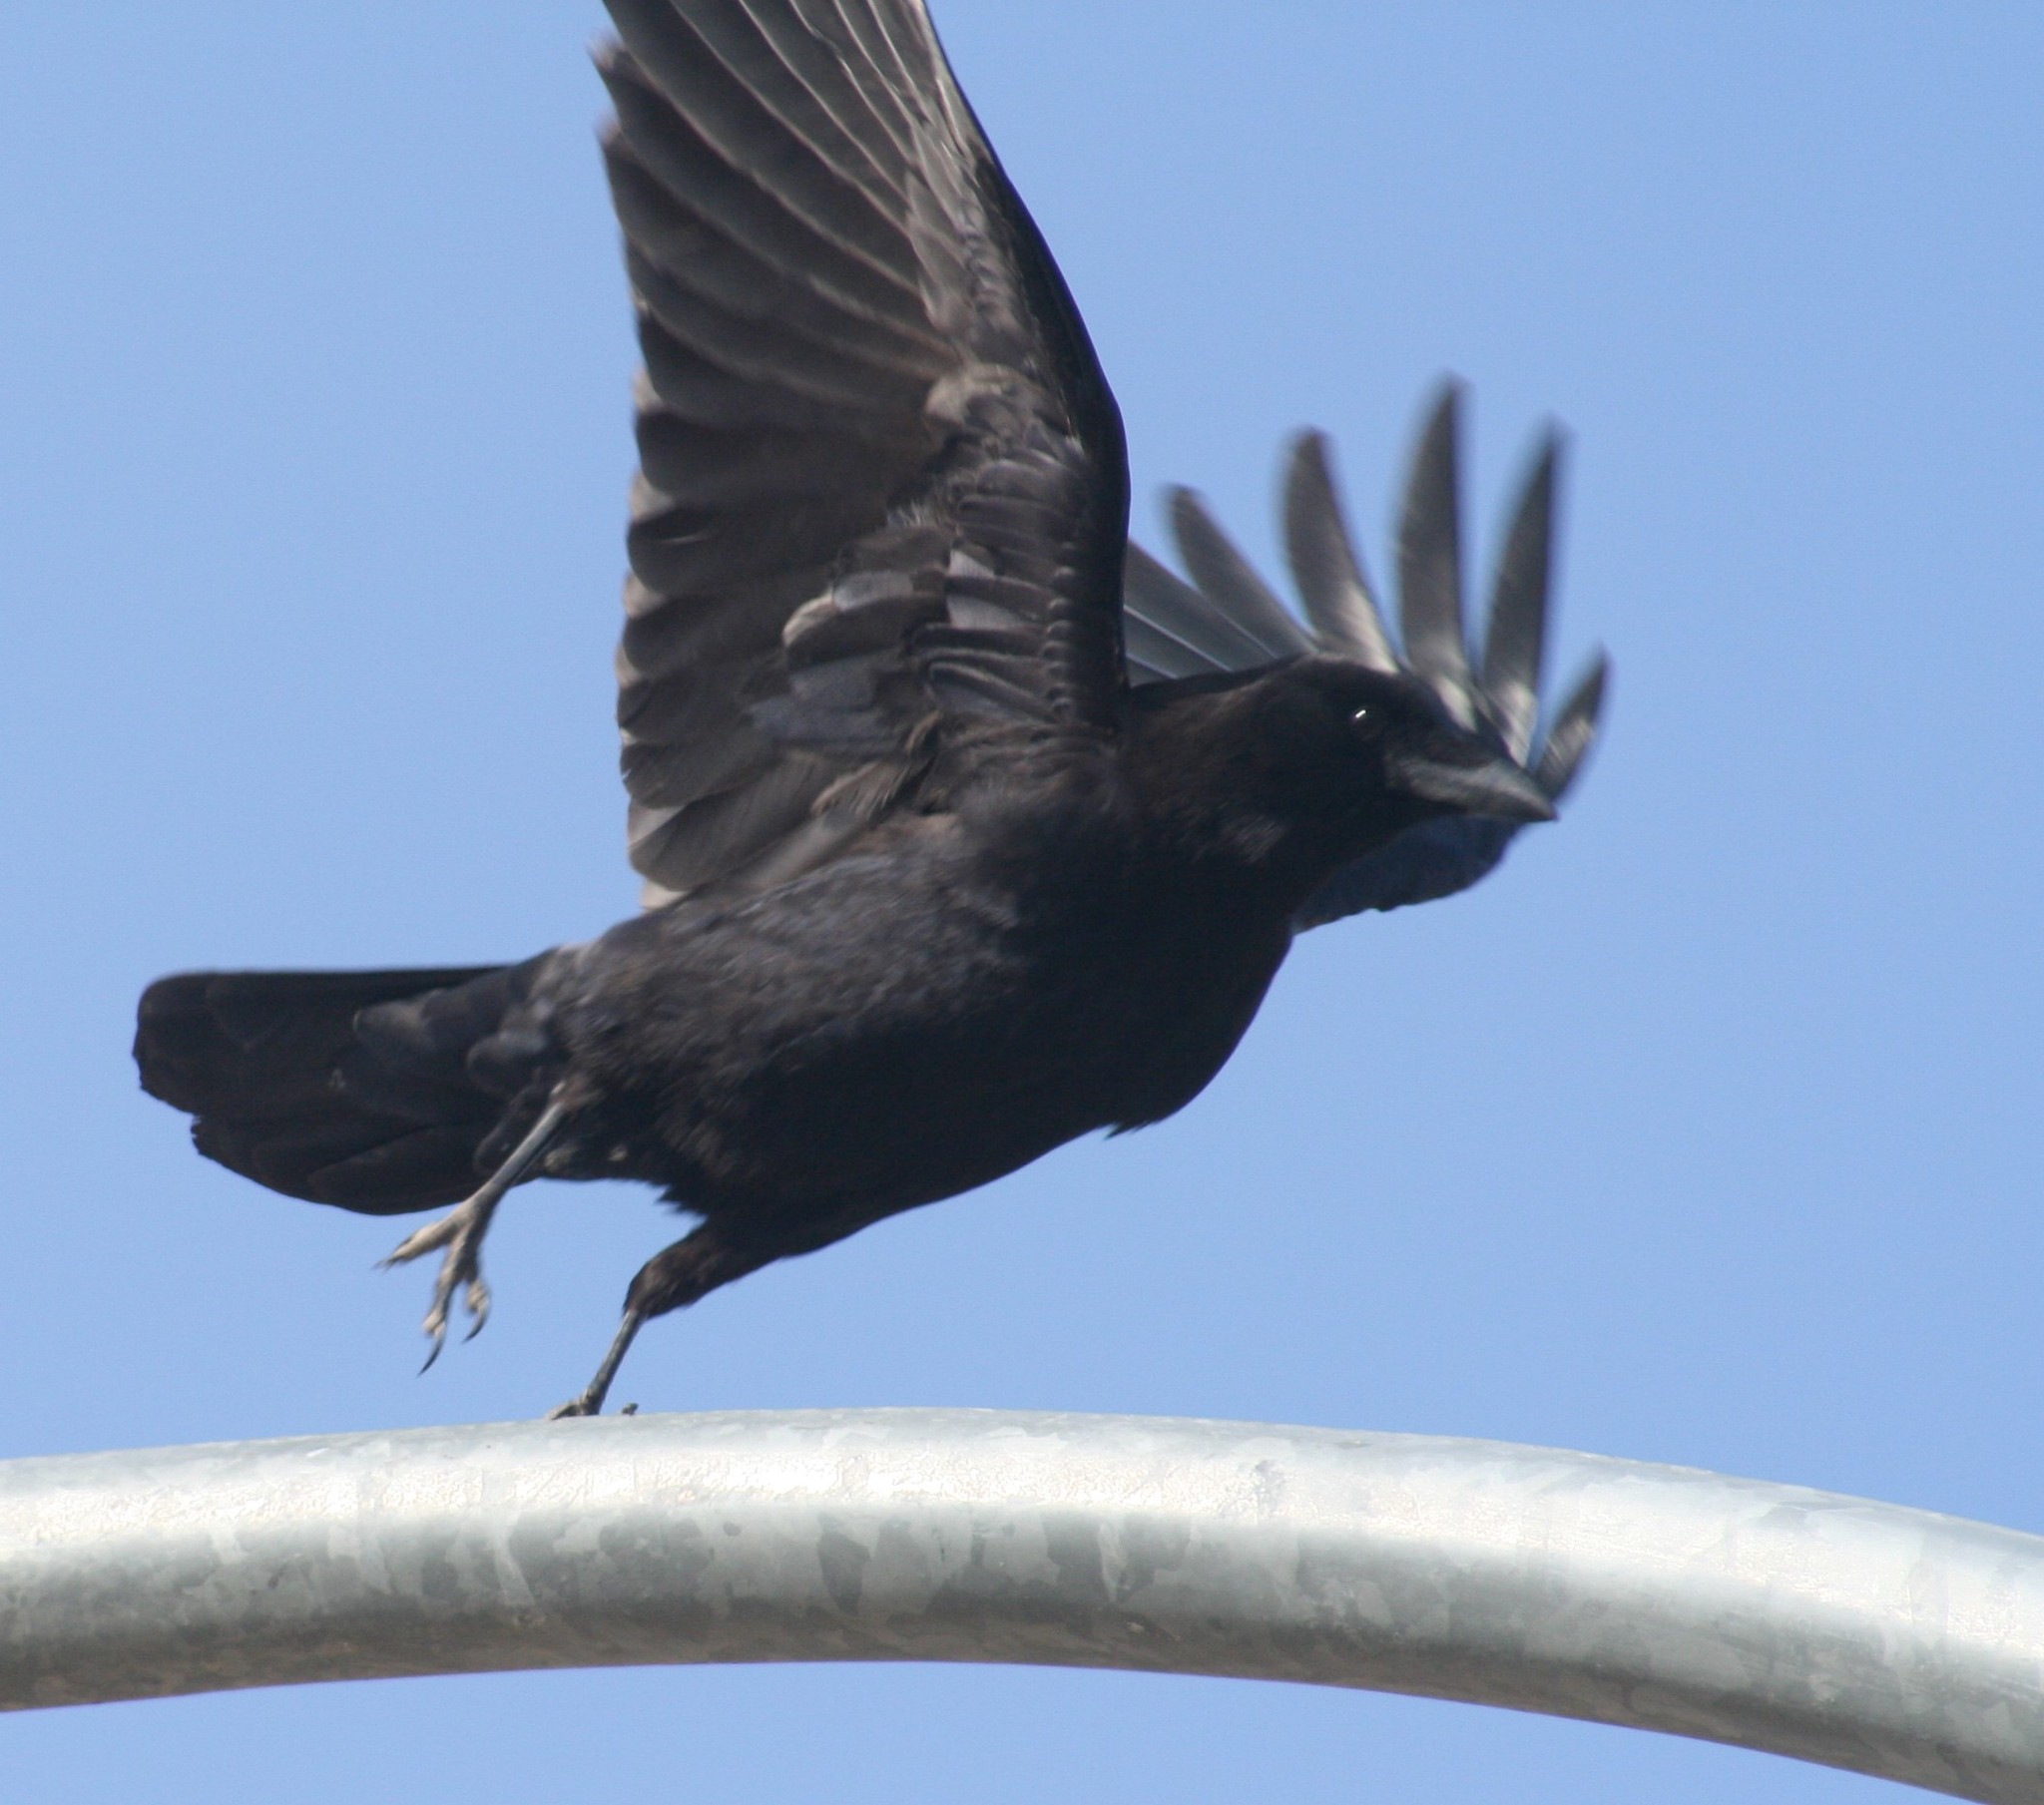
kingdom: Animalia
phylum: Chordata
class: Aves
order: Passeriformes
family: Corvidae
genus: Corvus
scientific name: Corvus brachyrhynchos
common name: American crow
